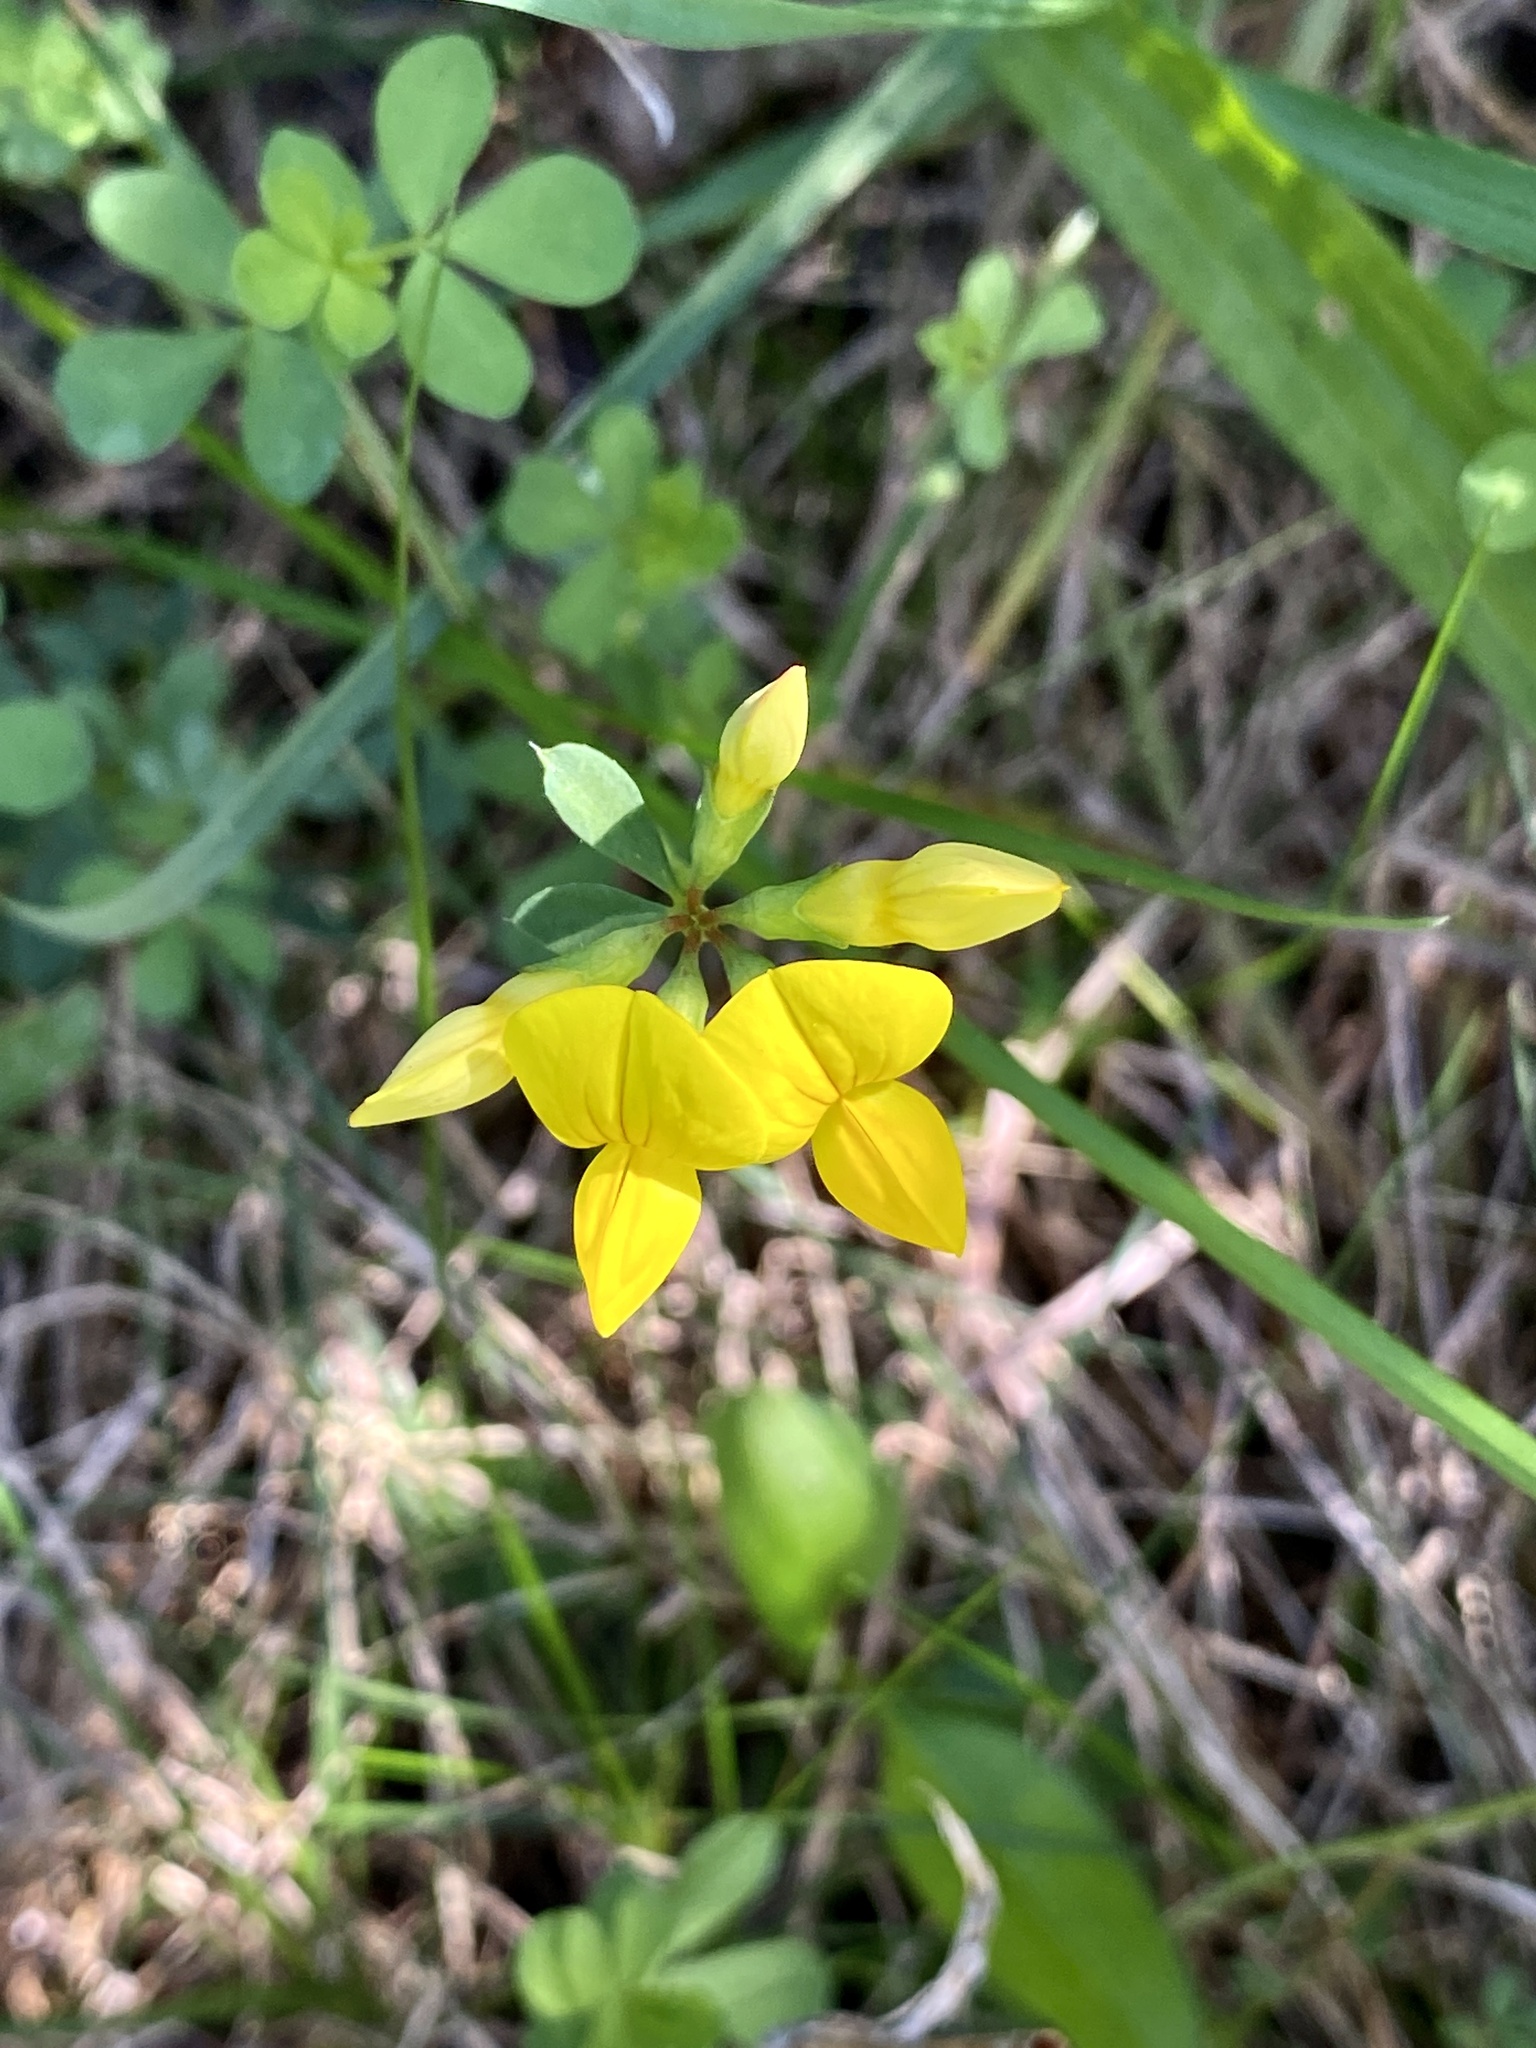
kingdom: Plantae
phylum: Tracheophyta
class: Magnoliopsida
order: Fabales
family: Fabaceae
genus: Lotus
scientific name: Lotus corniculatus
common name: Common bird's-foot-trefoil
